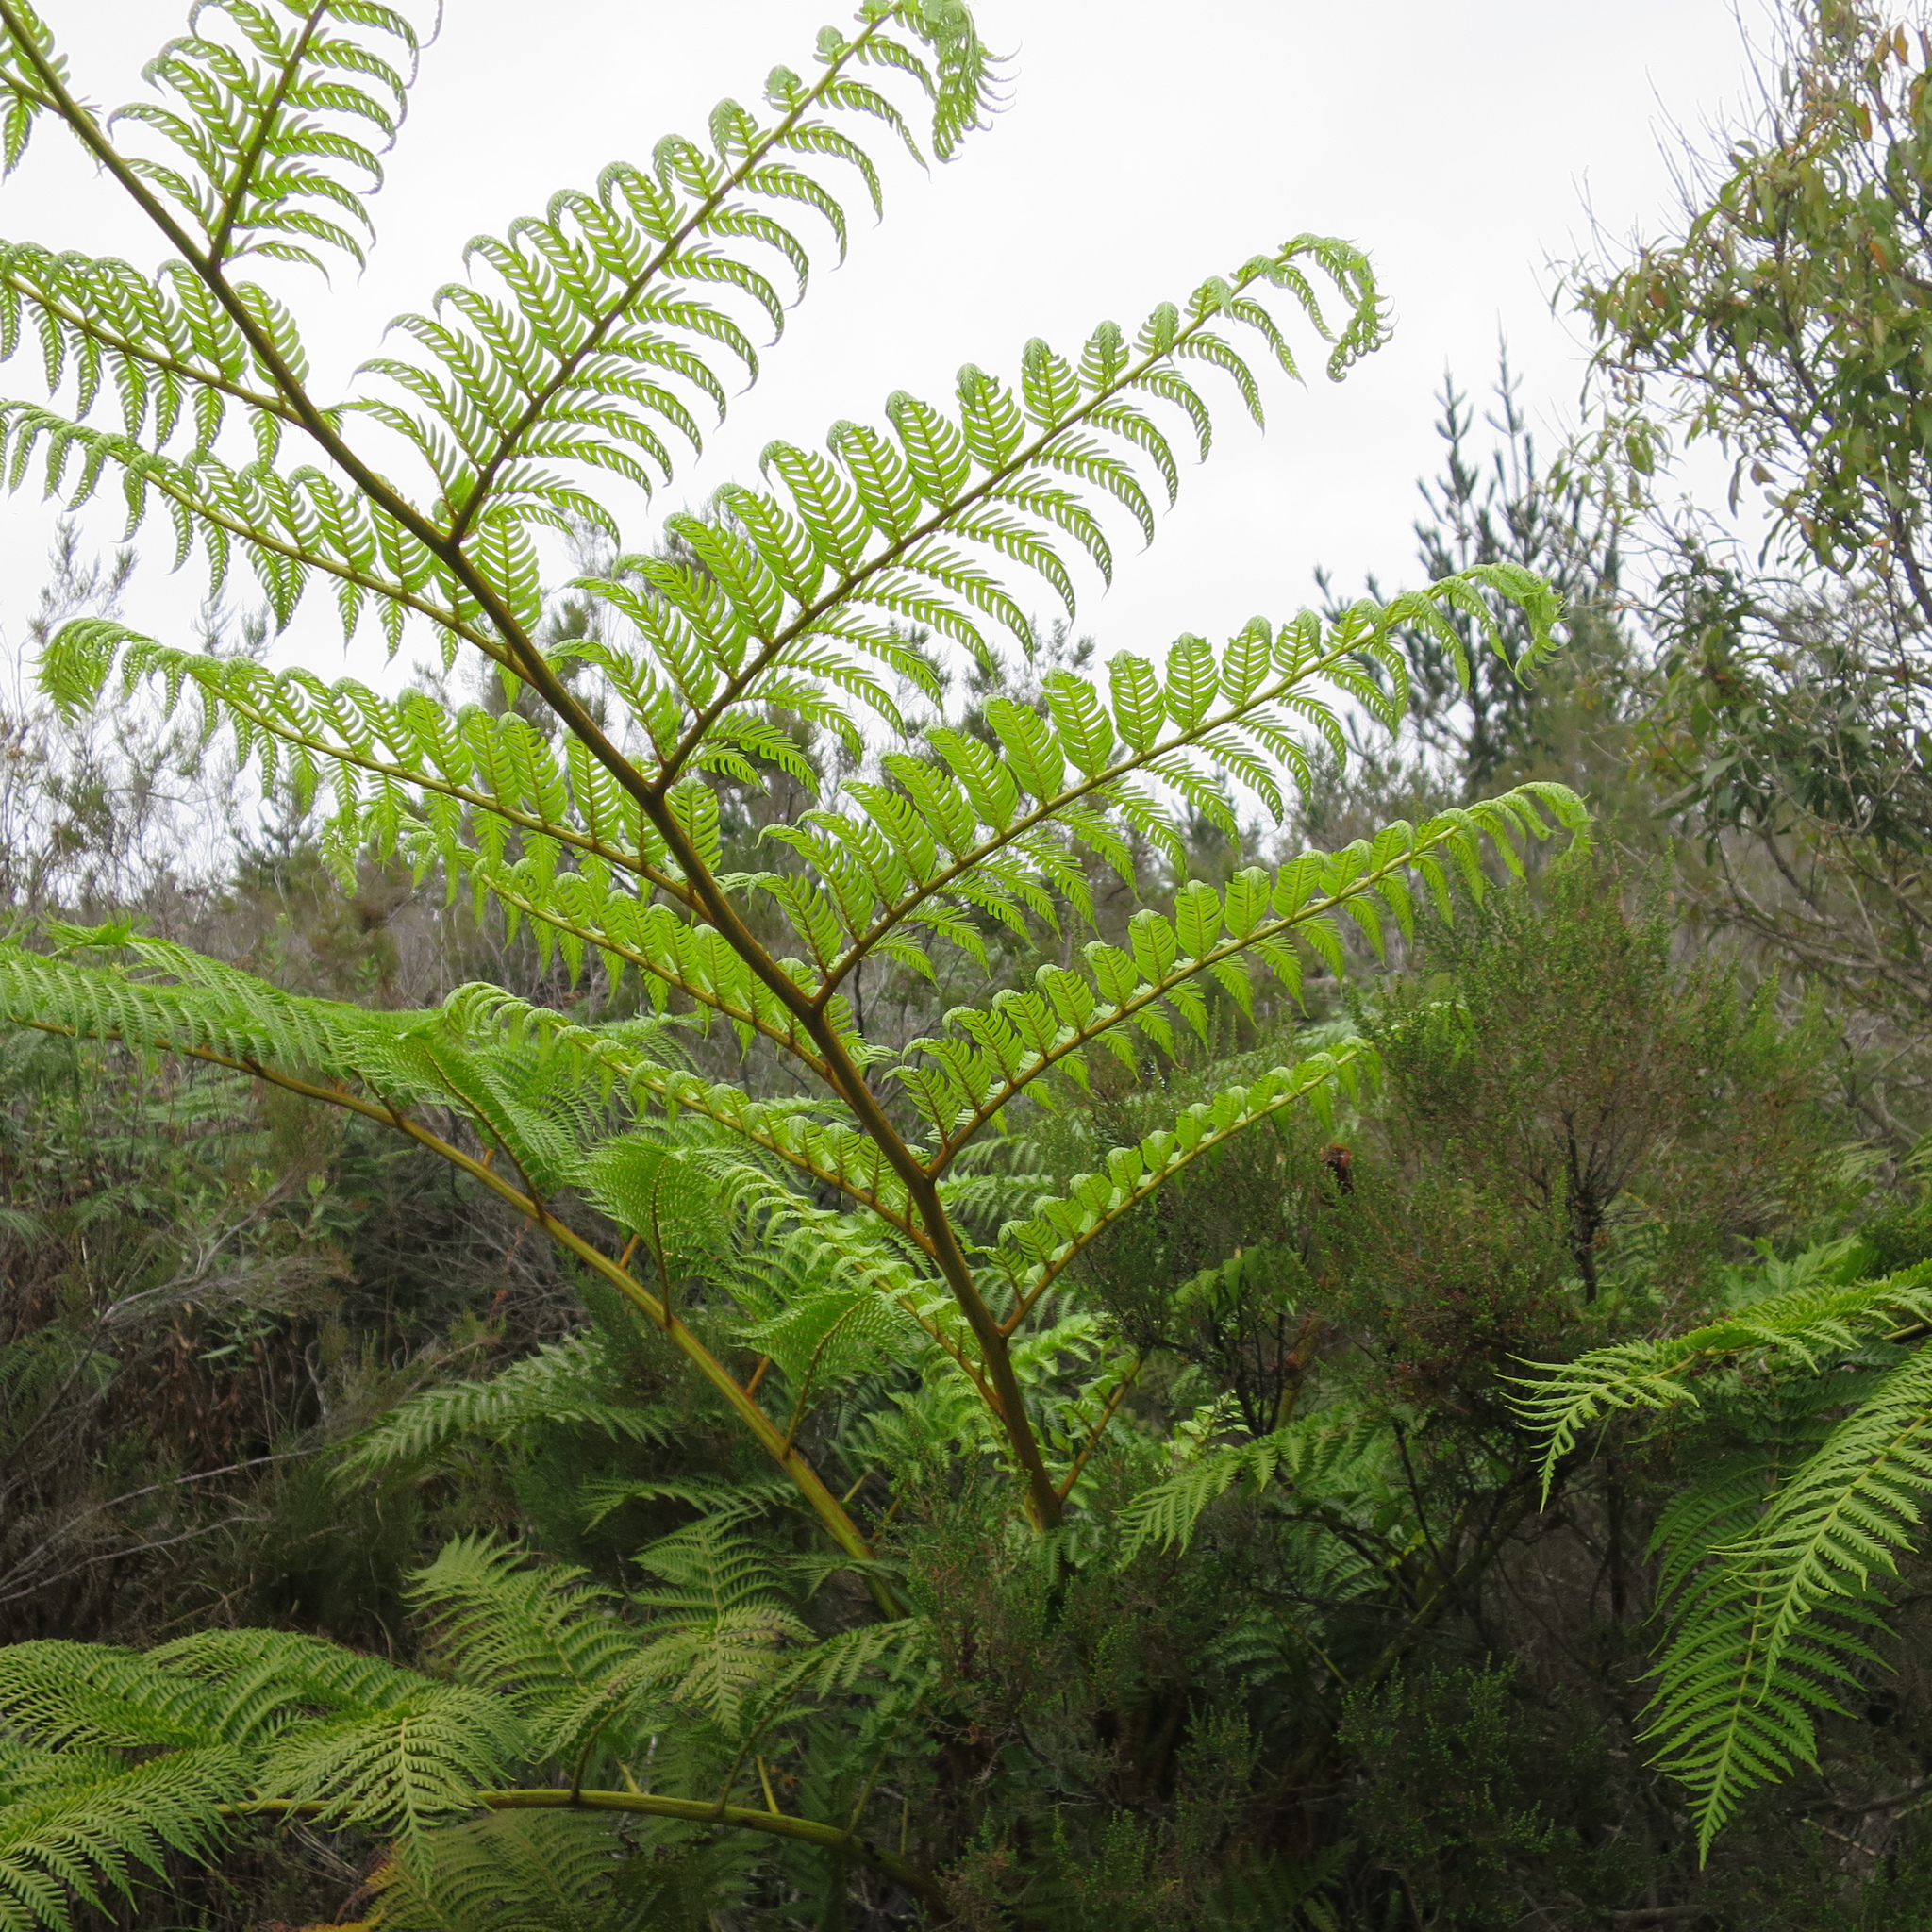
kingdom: Plantae
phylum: Tracheophyta
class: Polypodiopsida
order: Cyatheales
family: Cyatheaceae
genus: Sphaeropteris
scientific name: Sphaeropteris cooperi
